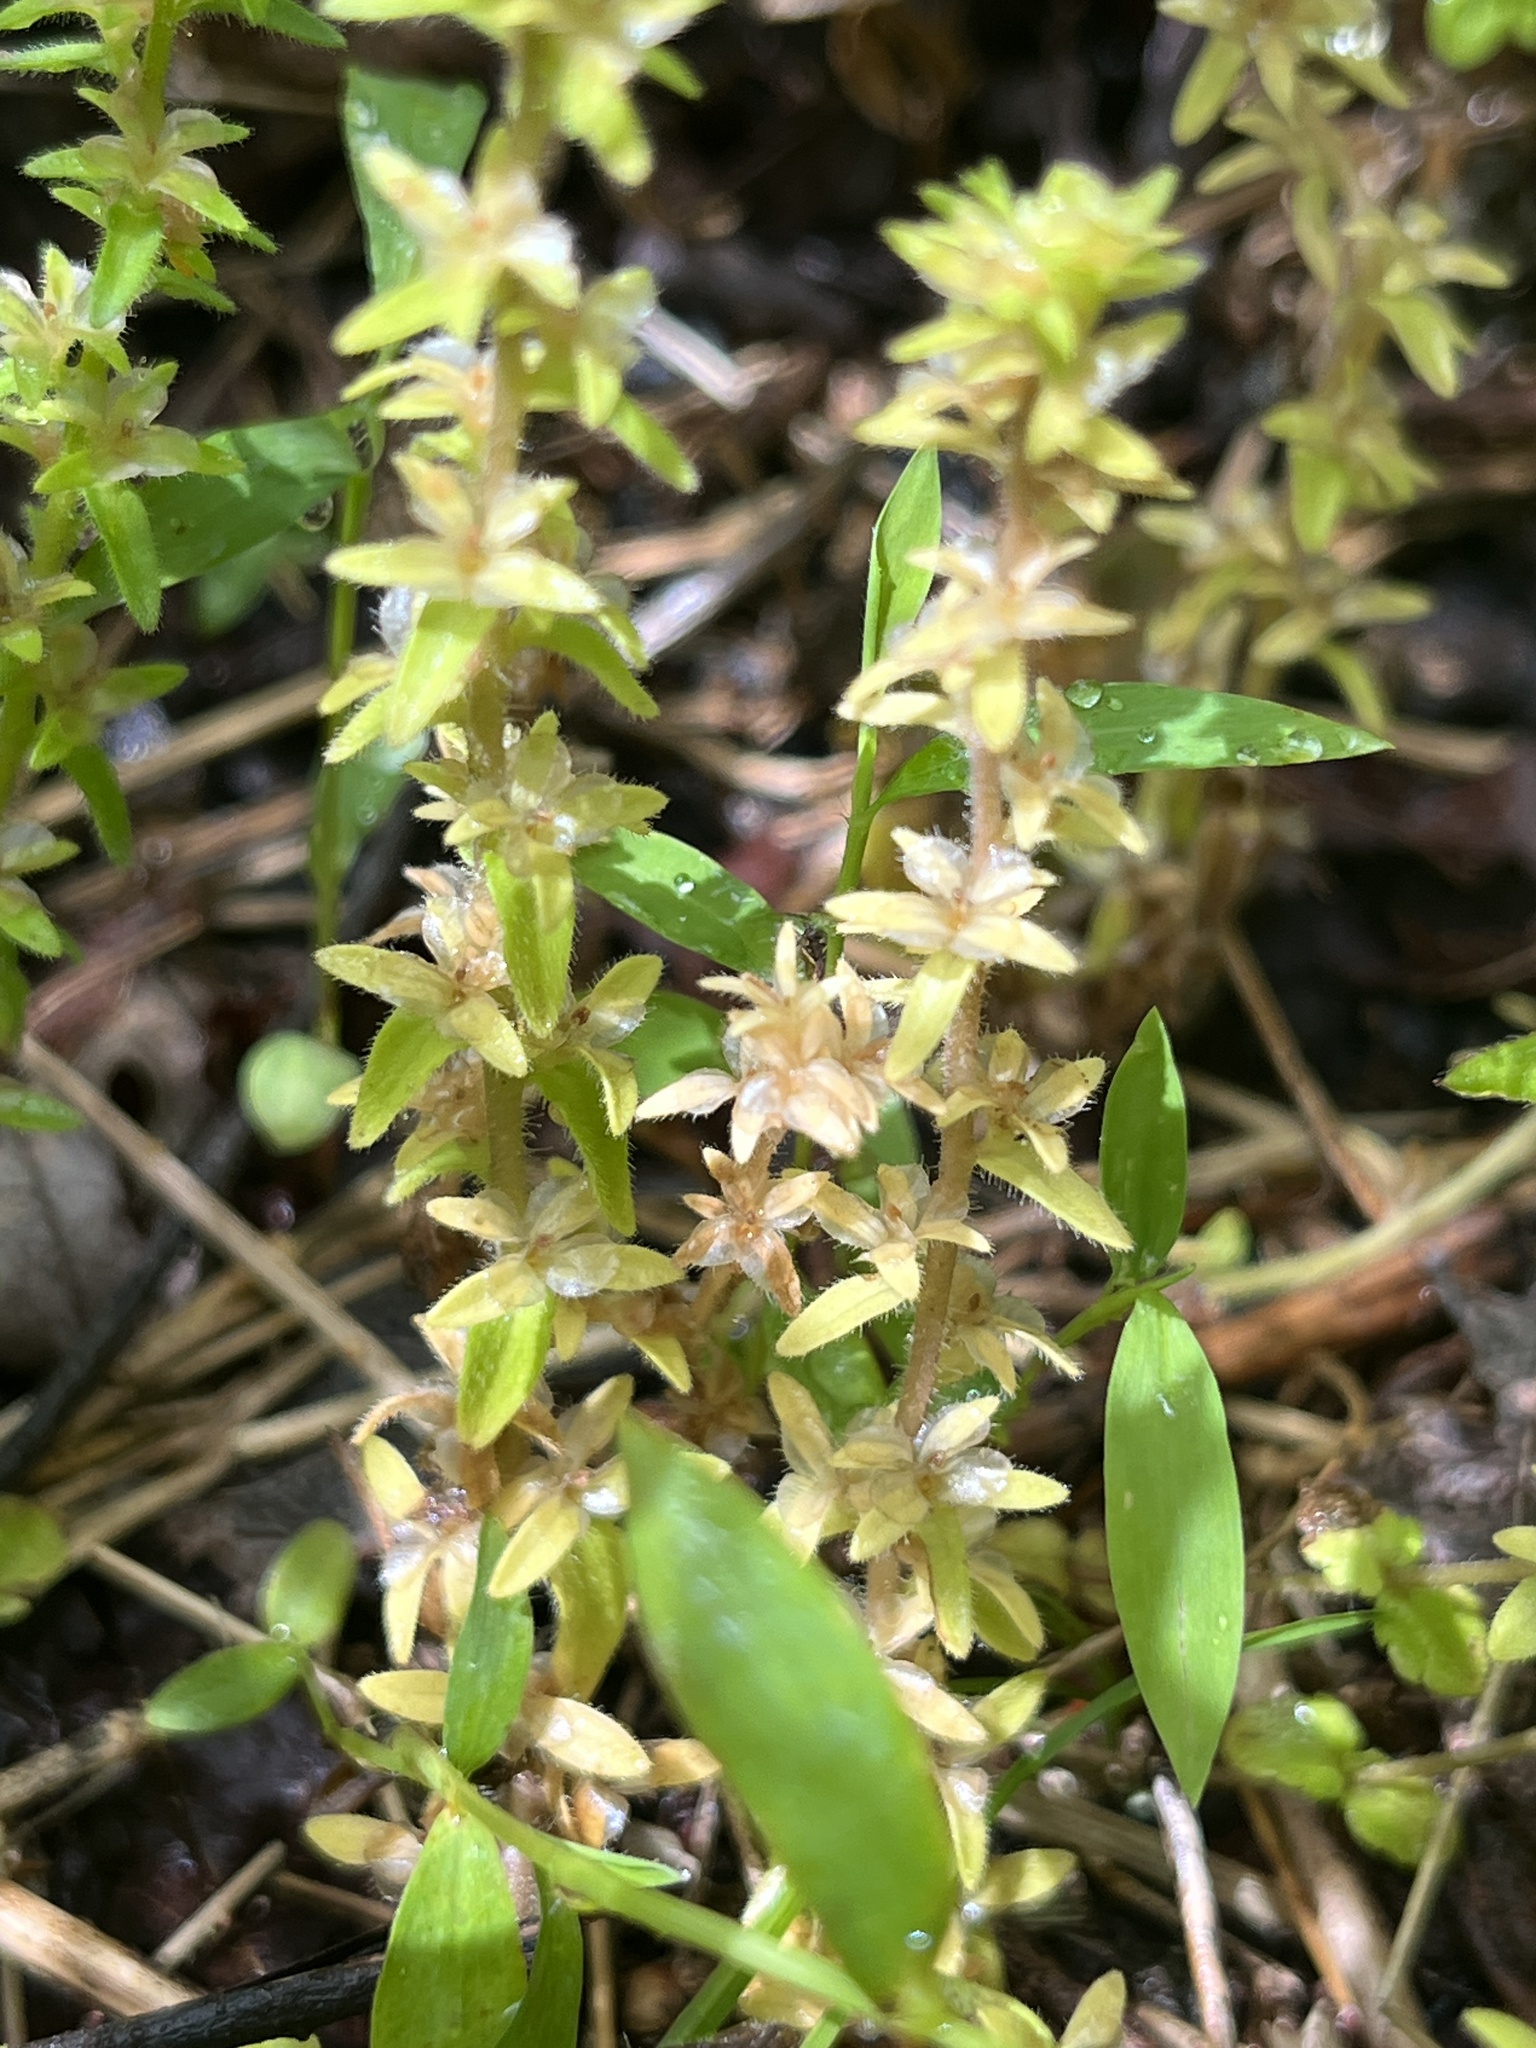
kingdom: Plantae
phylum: Tracheophyta
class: Magnoliopsida
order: Lamiales
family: Plantaginaceae
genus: Veronica
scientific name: Veronica arvensis
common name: Corn speedwell
